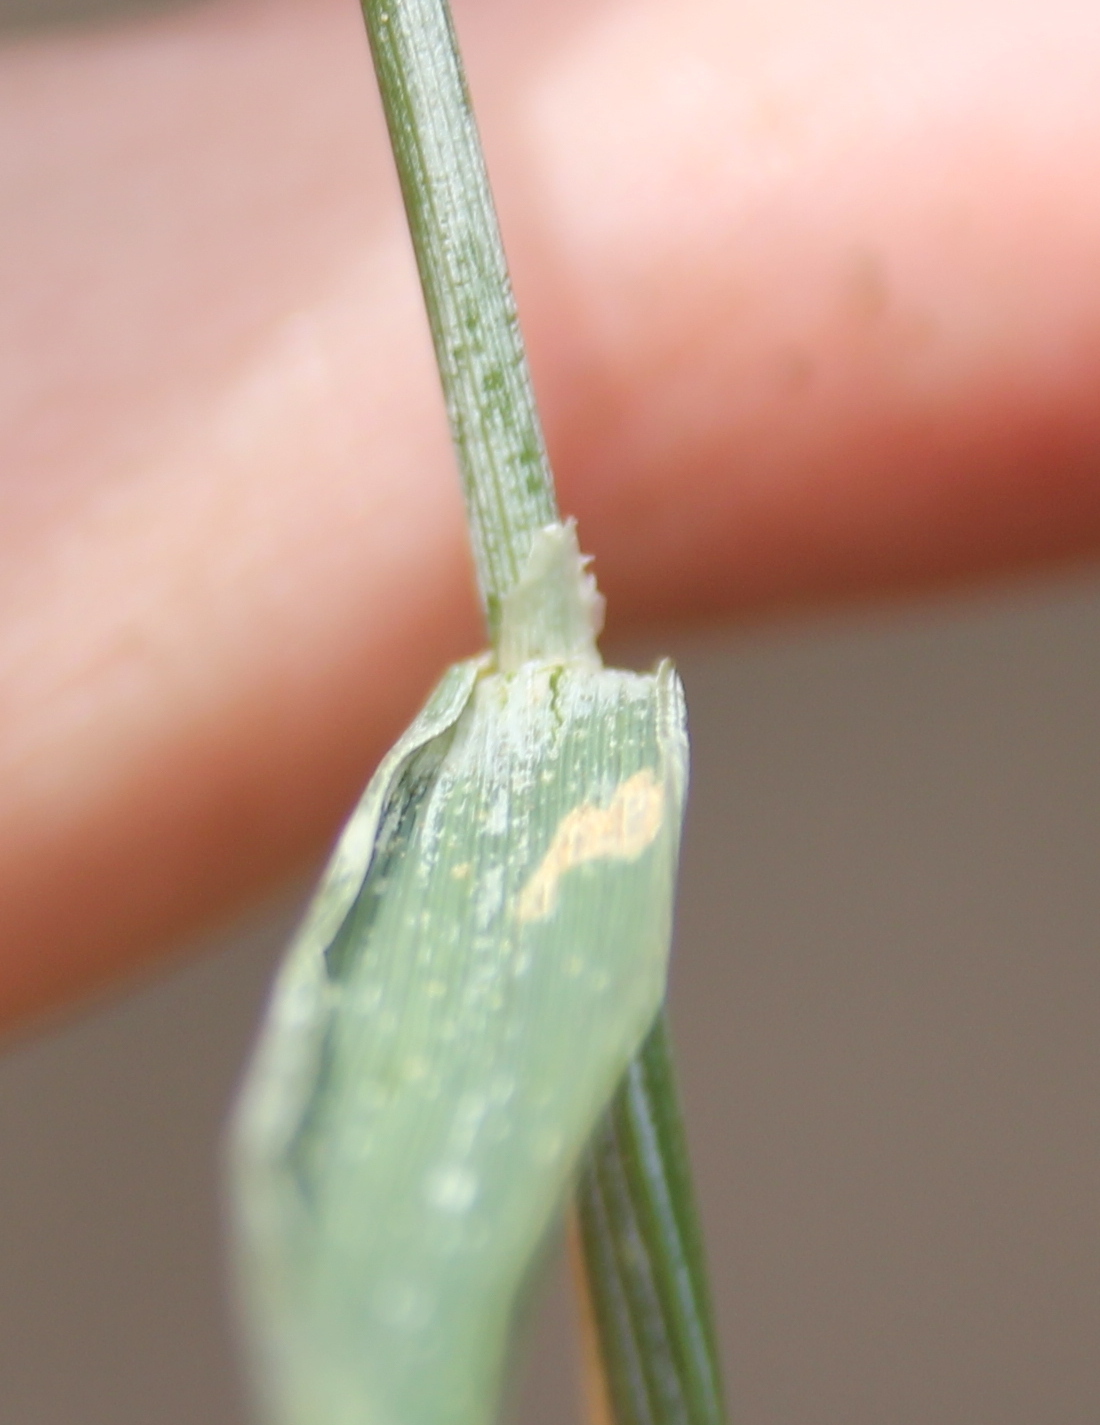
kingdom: Plantae
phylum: Tracheophyta
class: Liliopsida
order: Poales
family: Poaceae
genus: Triticum
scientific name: Triticum aestivum
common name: Common wheat
